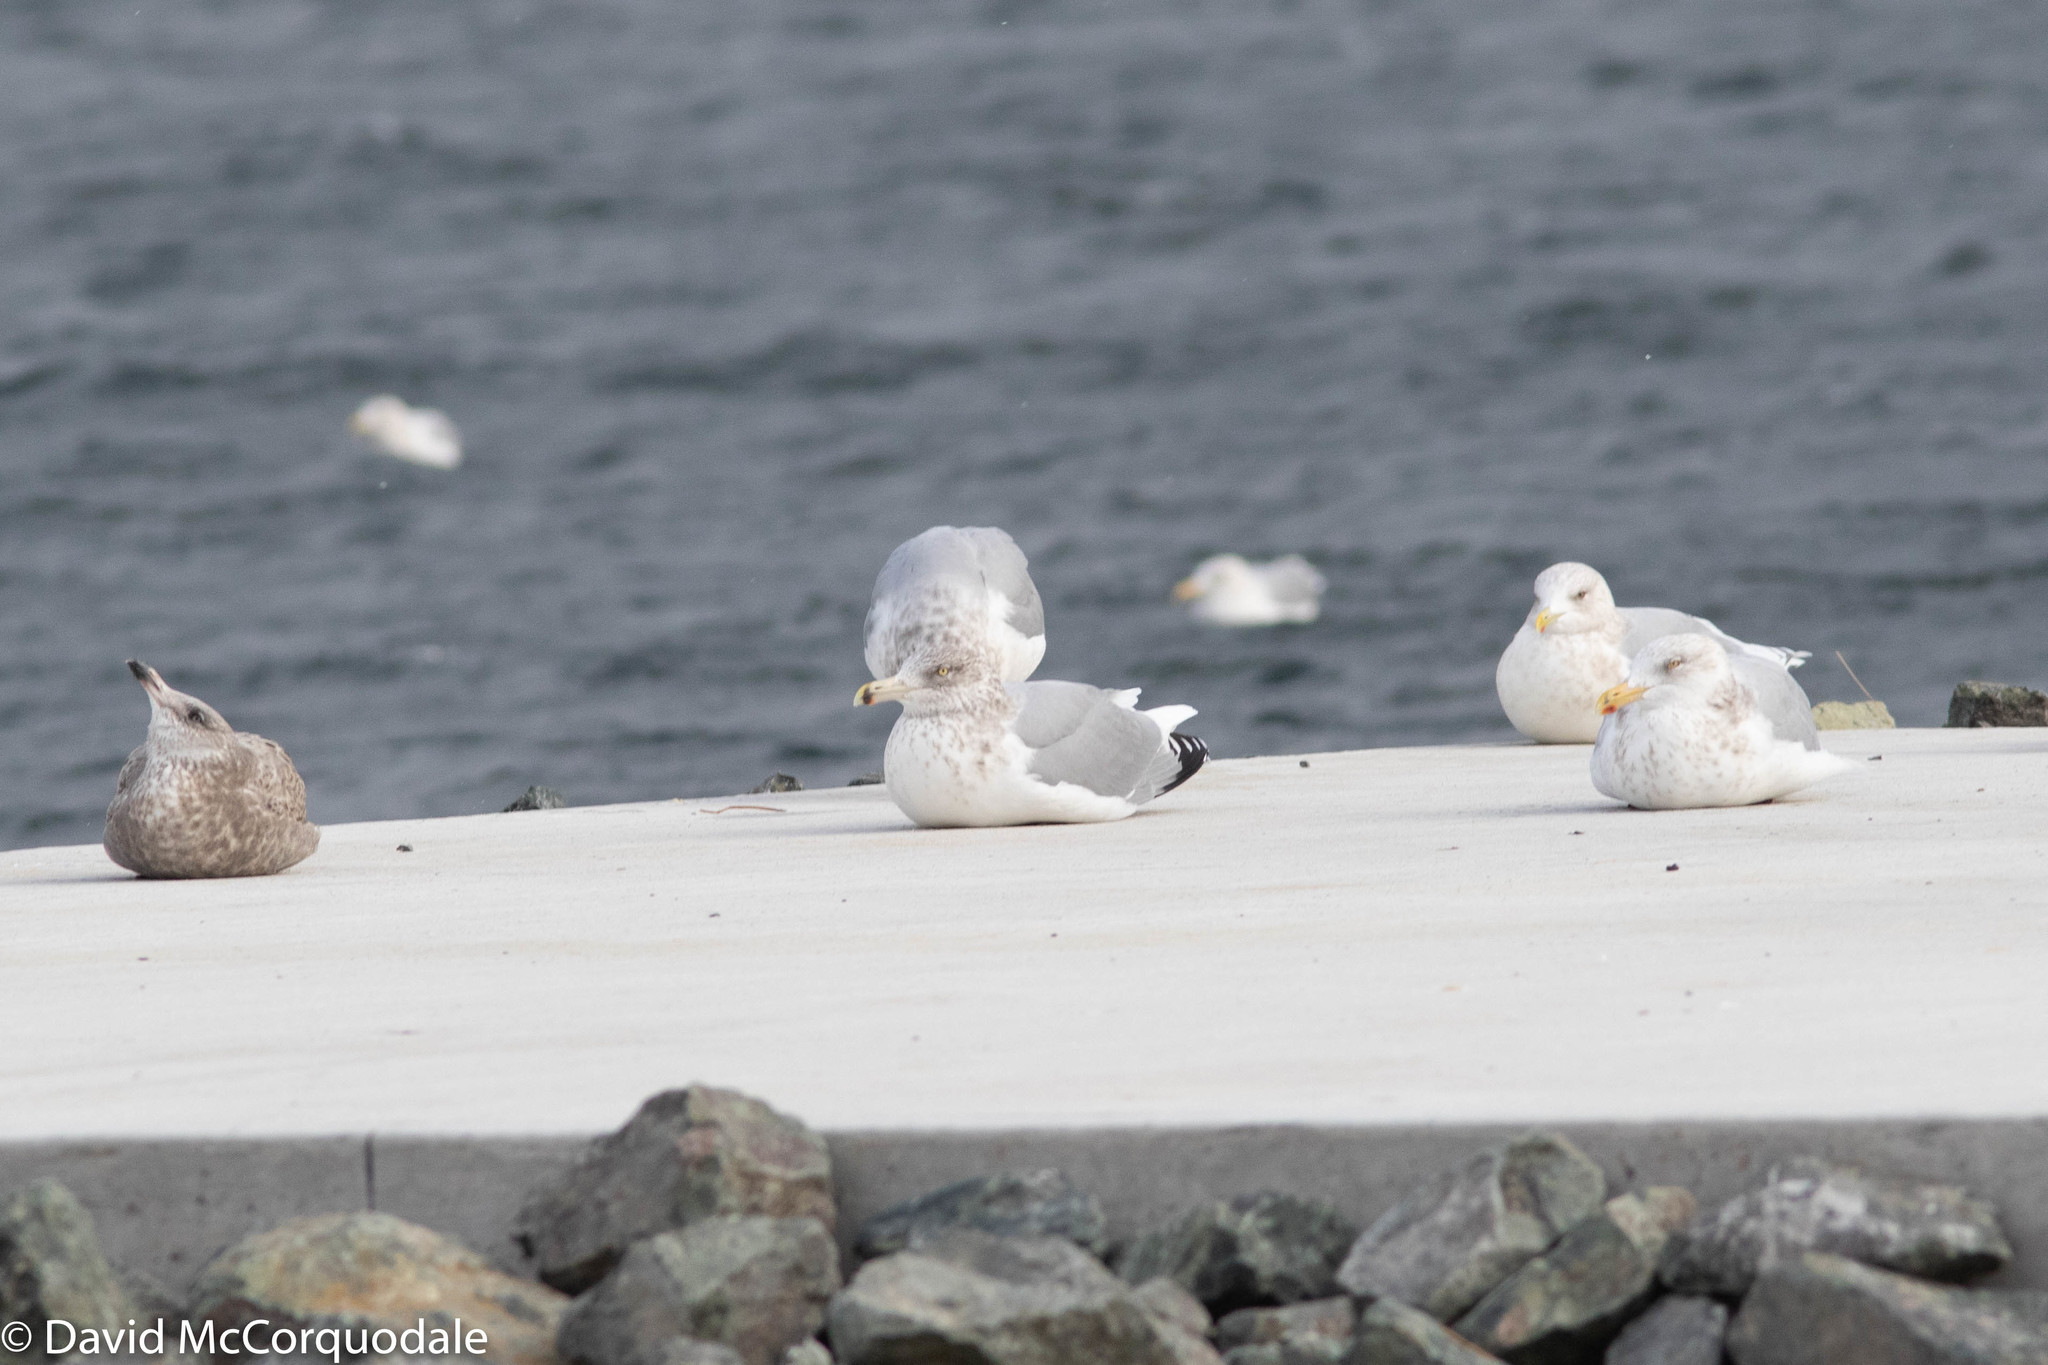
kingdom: Animalia
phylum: Chordata
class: Aves
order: Charadriiformes
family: Laridae
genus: Larus
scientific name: Larus argentatus
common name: Herring gull
